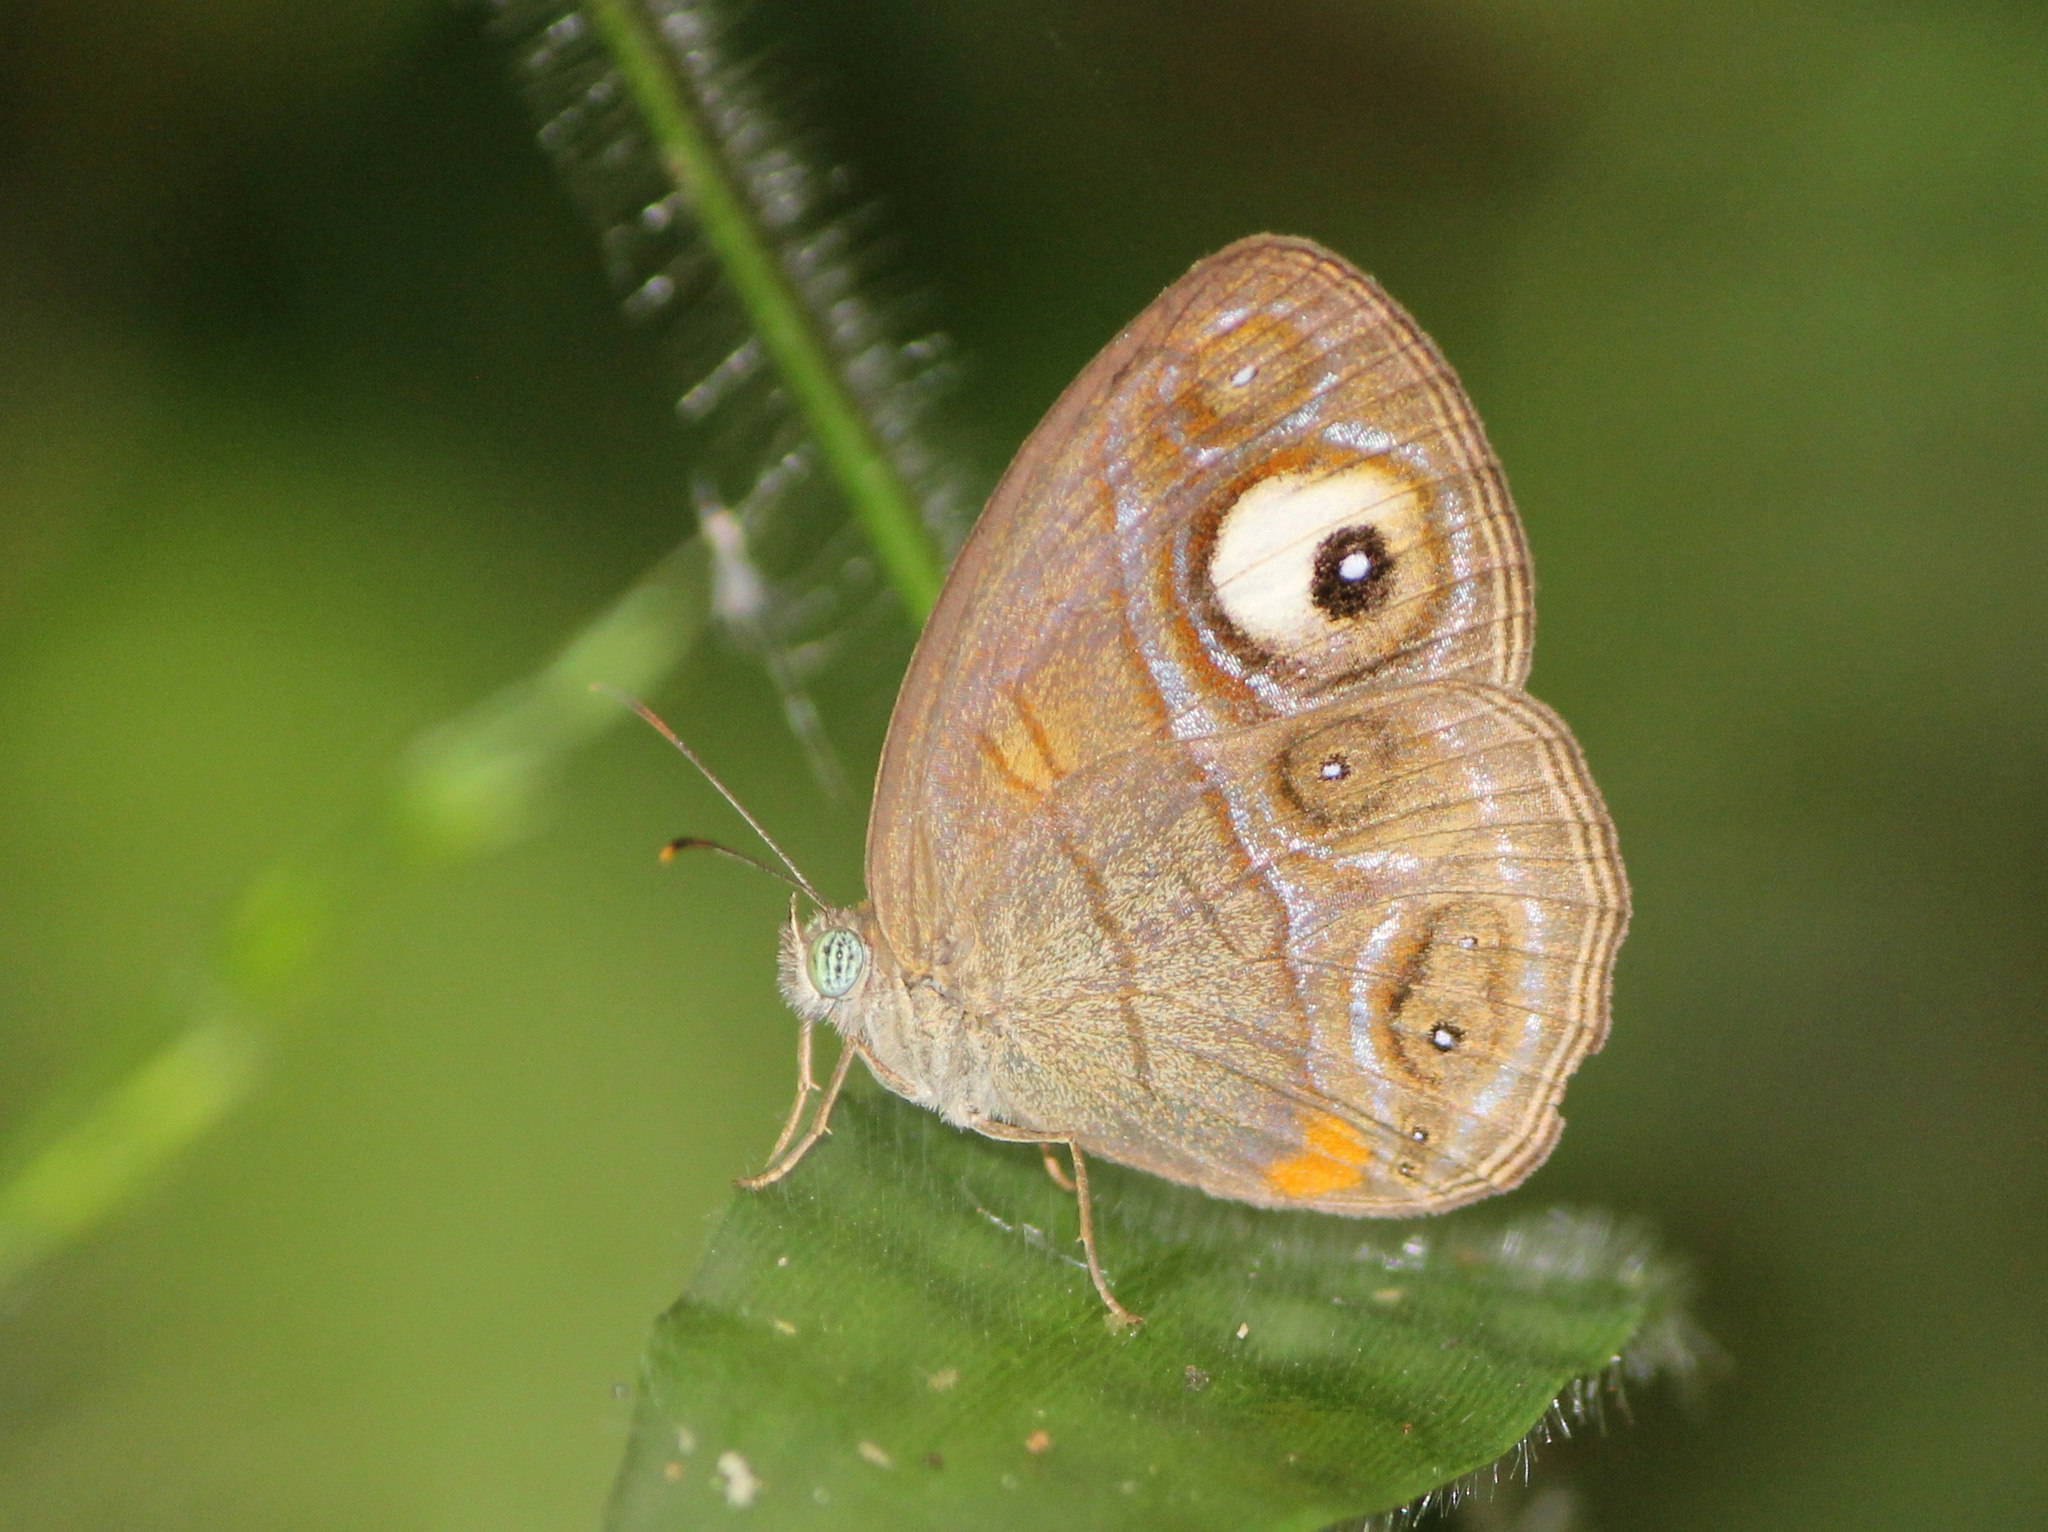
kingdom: Animalia
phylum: Arthropoda
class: Insecta
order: Lepidoptera
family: Nymphalidae
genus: Mycalesis
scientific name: Mycalesis patnia
